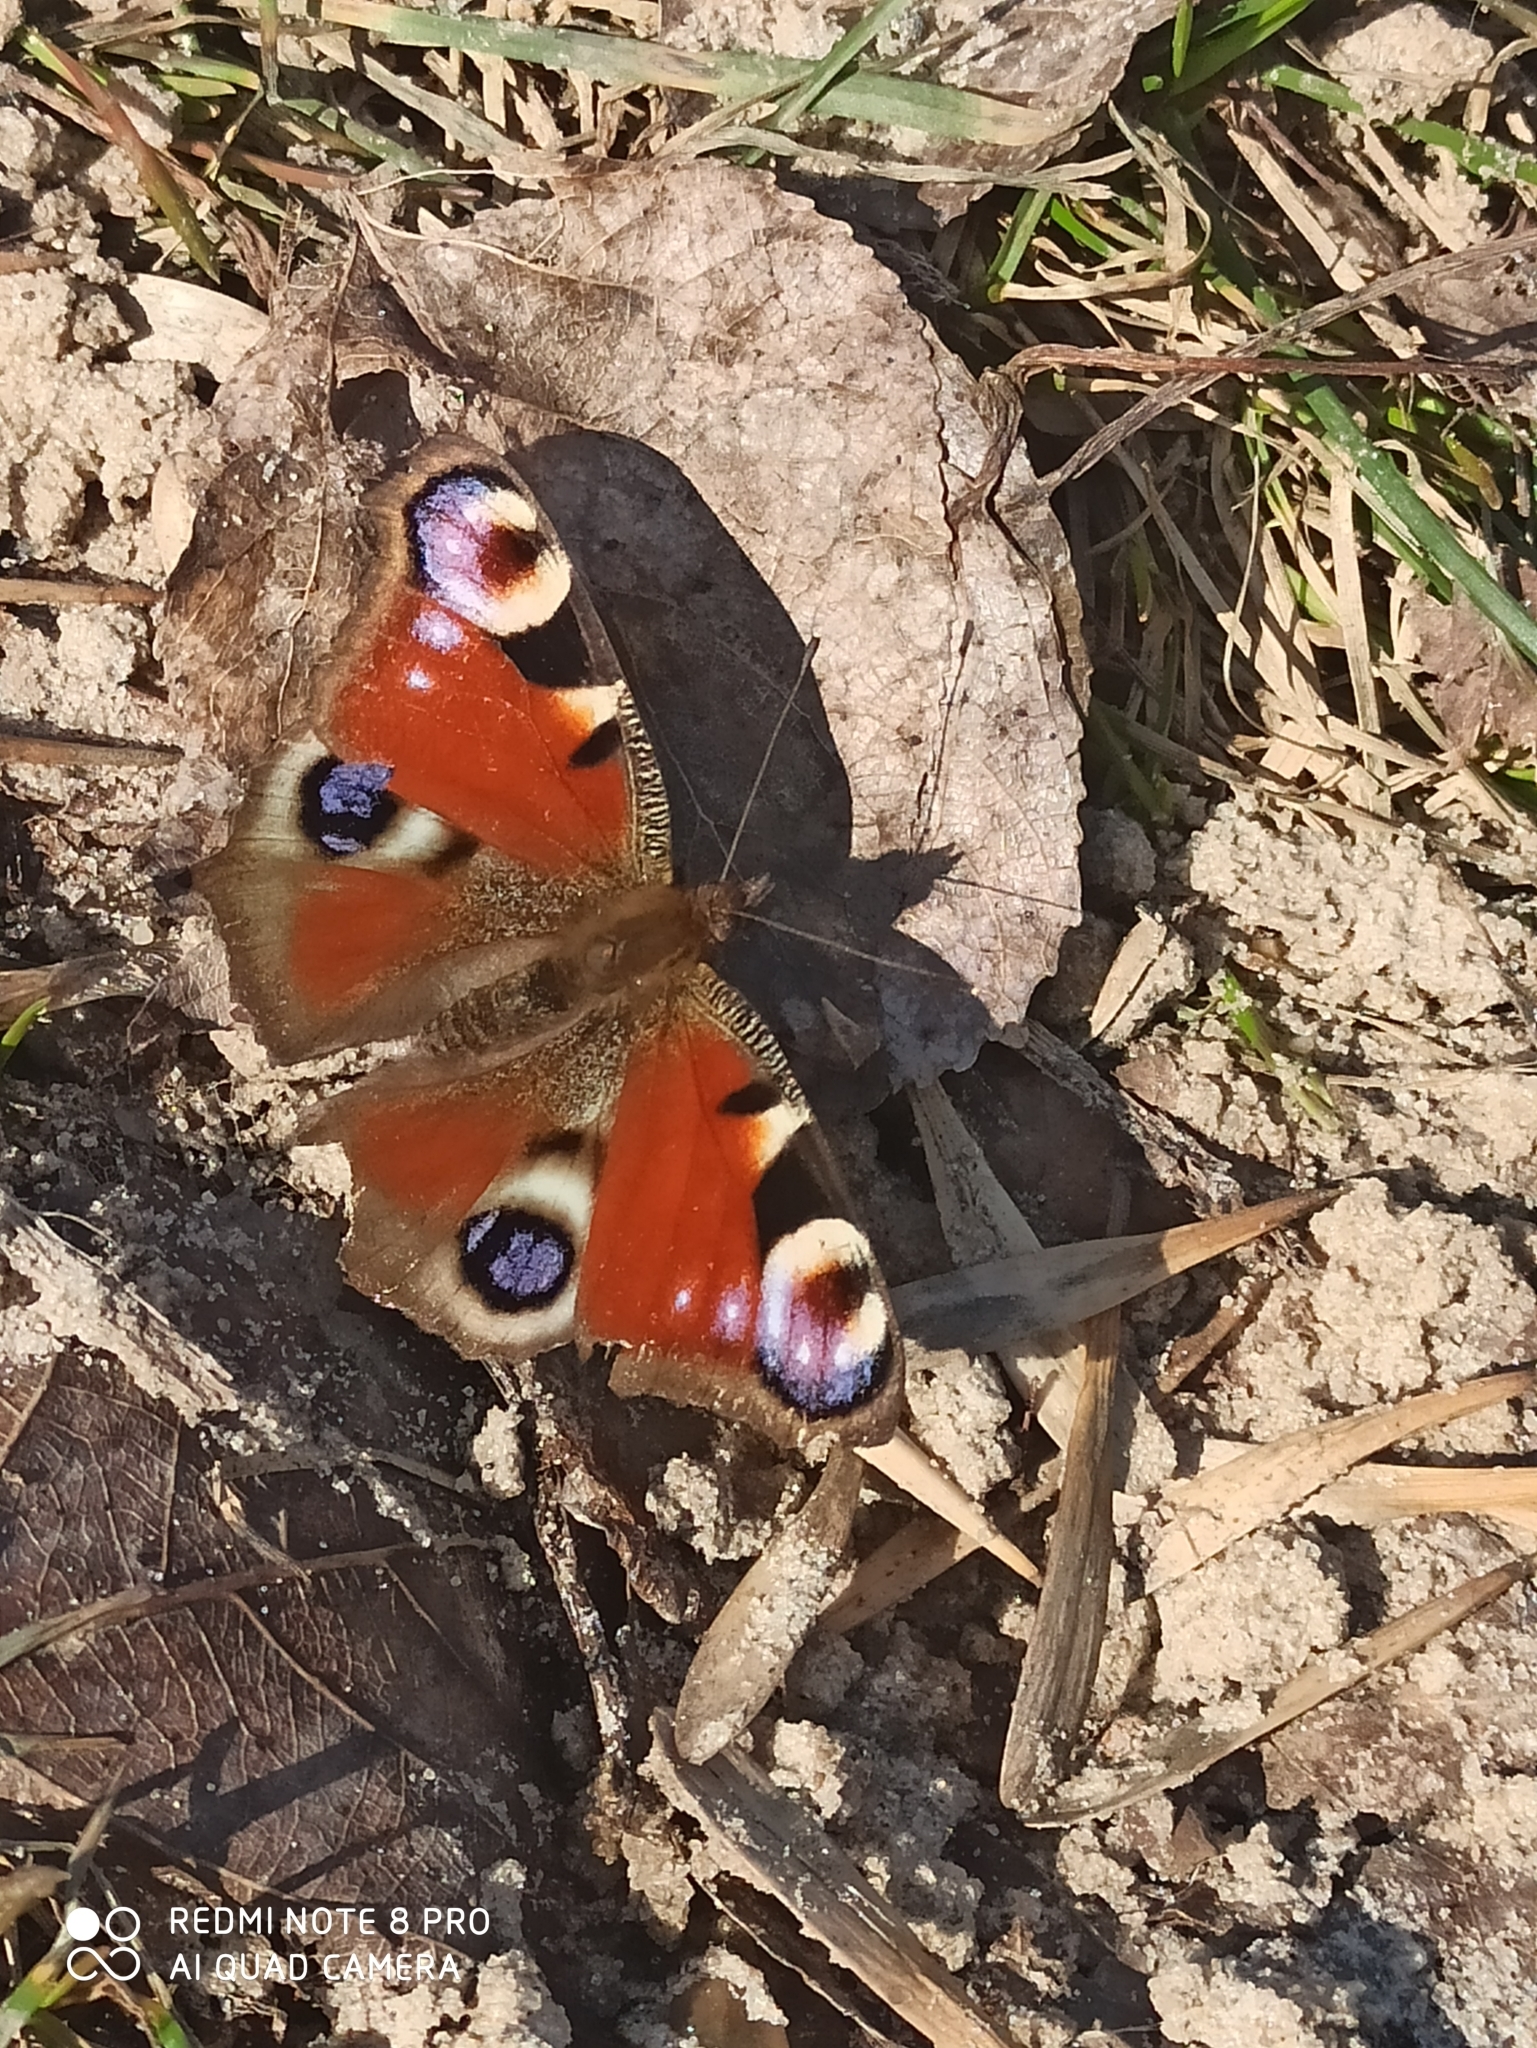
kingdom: Animalia
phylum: Arthropoda
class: Insecta
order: Lepidoptera
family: Nymphalidae
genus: Aglais
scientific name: Aglais io
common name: Peacock
